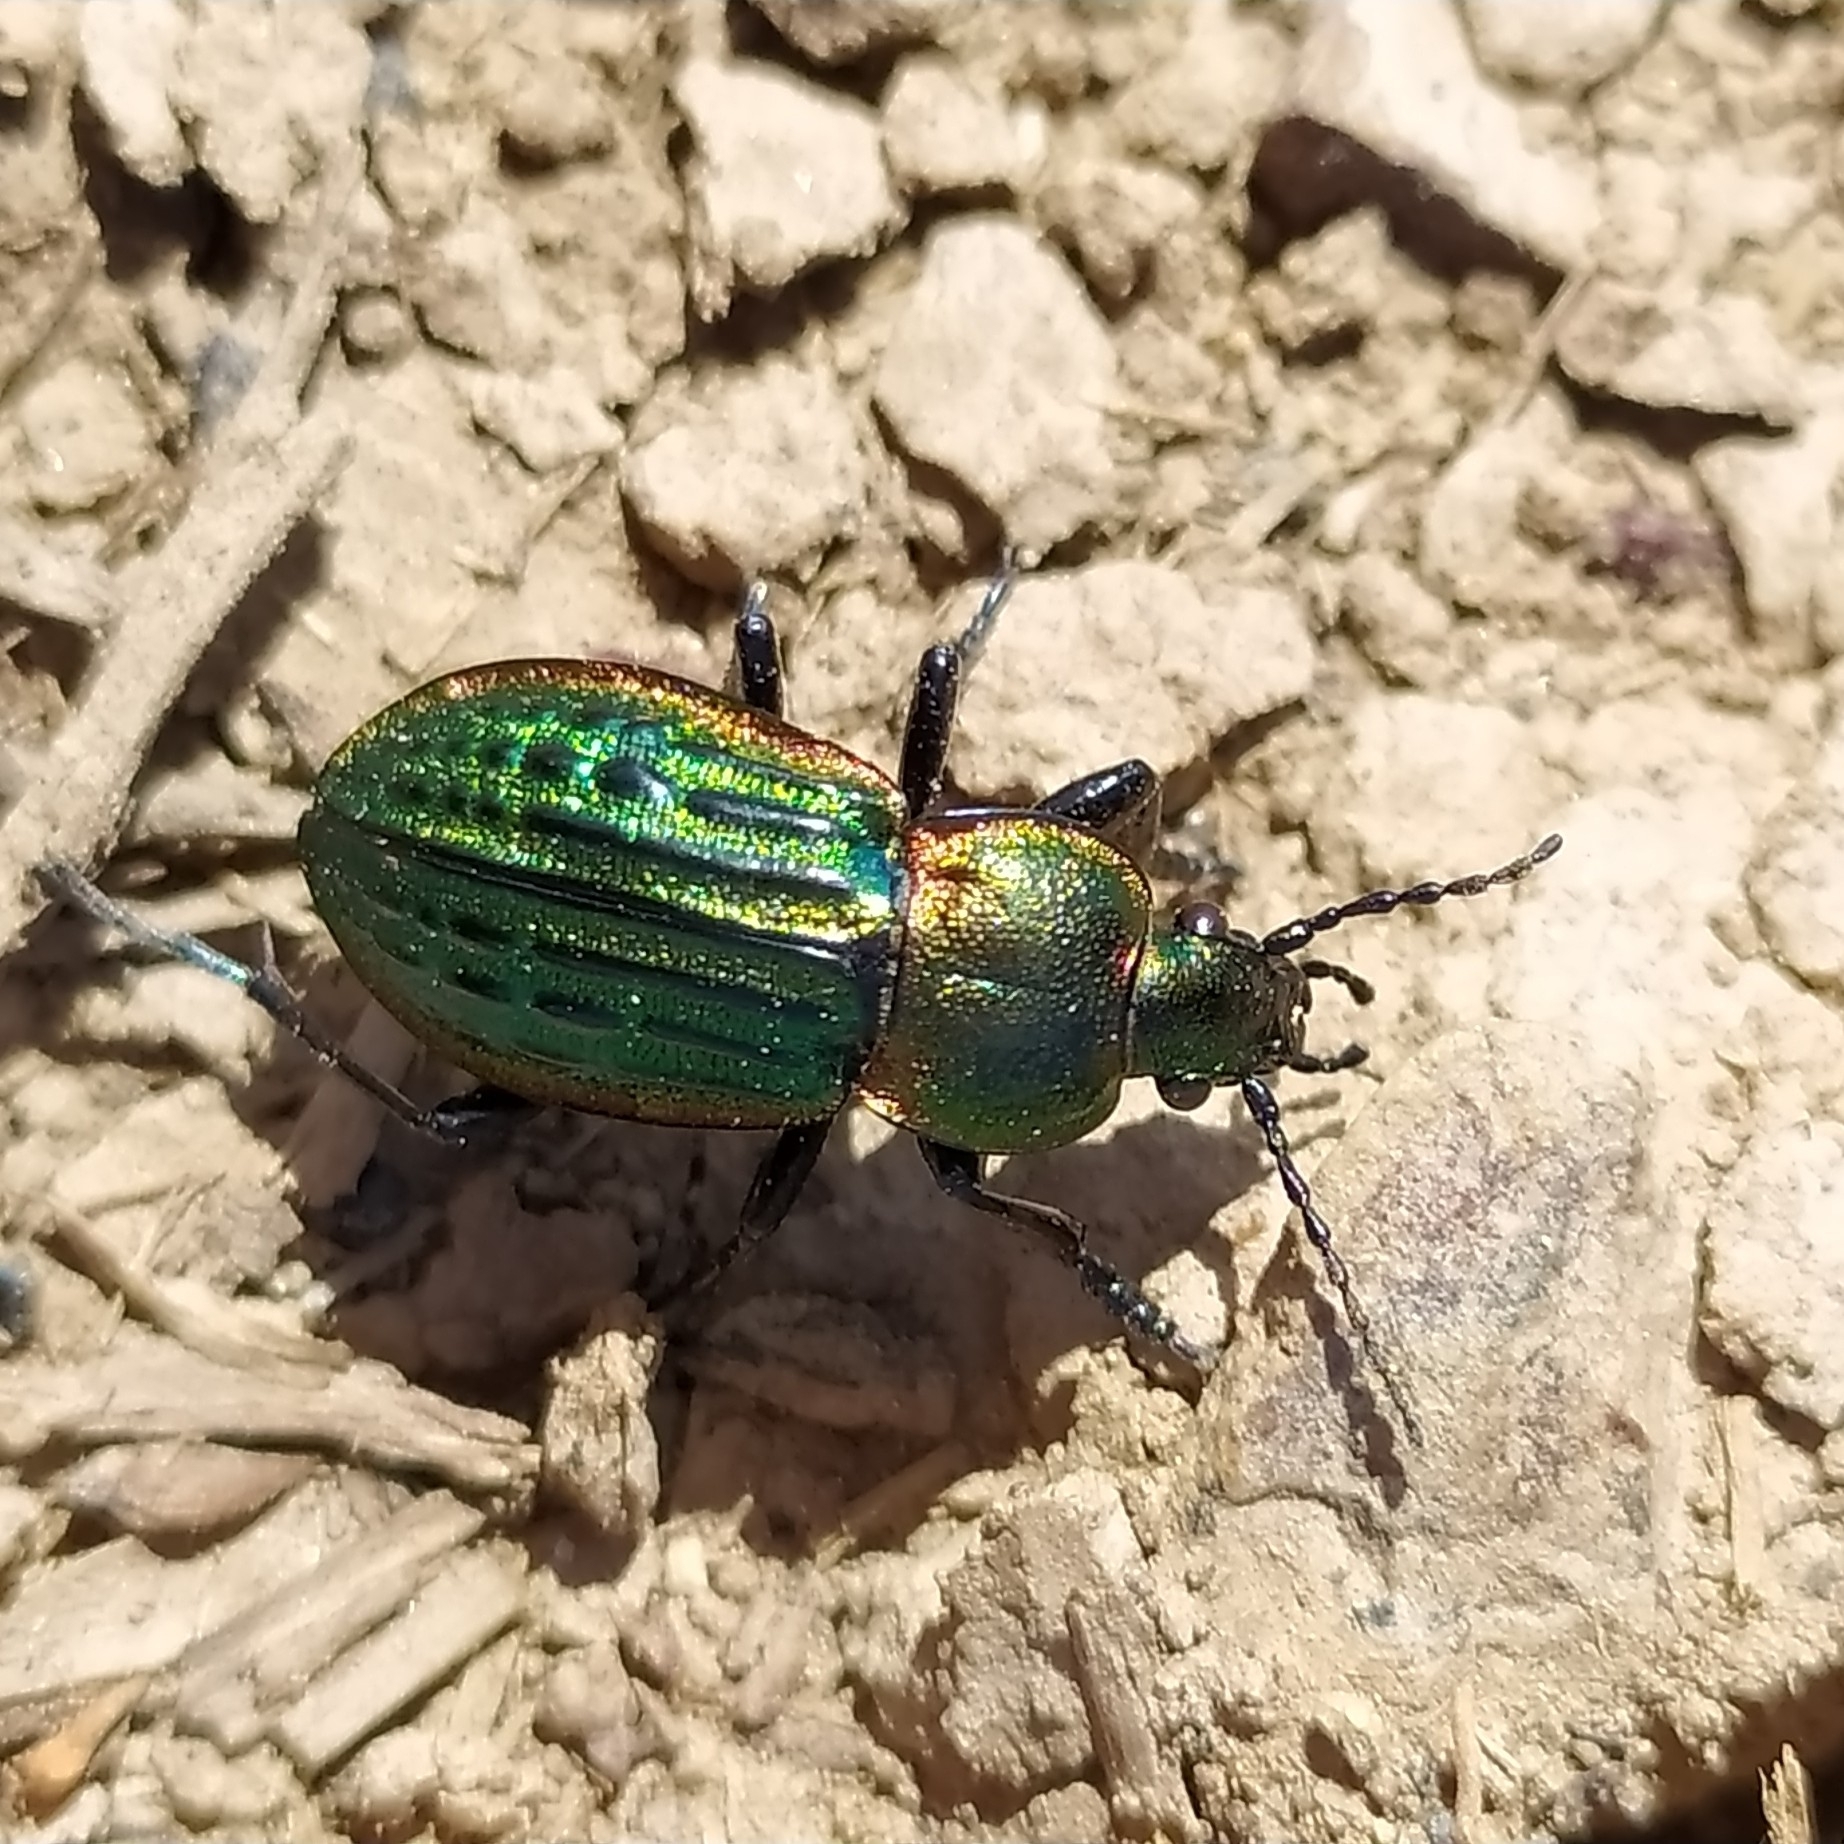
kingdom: Animalia
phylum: Arthropoda
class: Insecta
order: Coleoptera
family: Carabidae
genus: Carabus
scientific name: Carabus nitens
